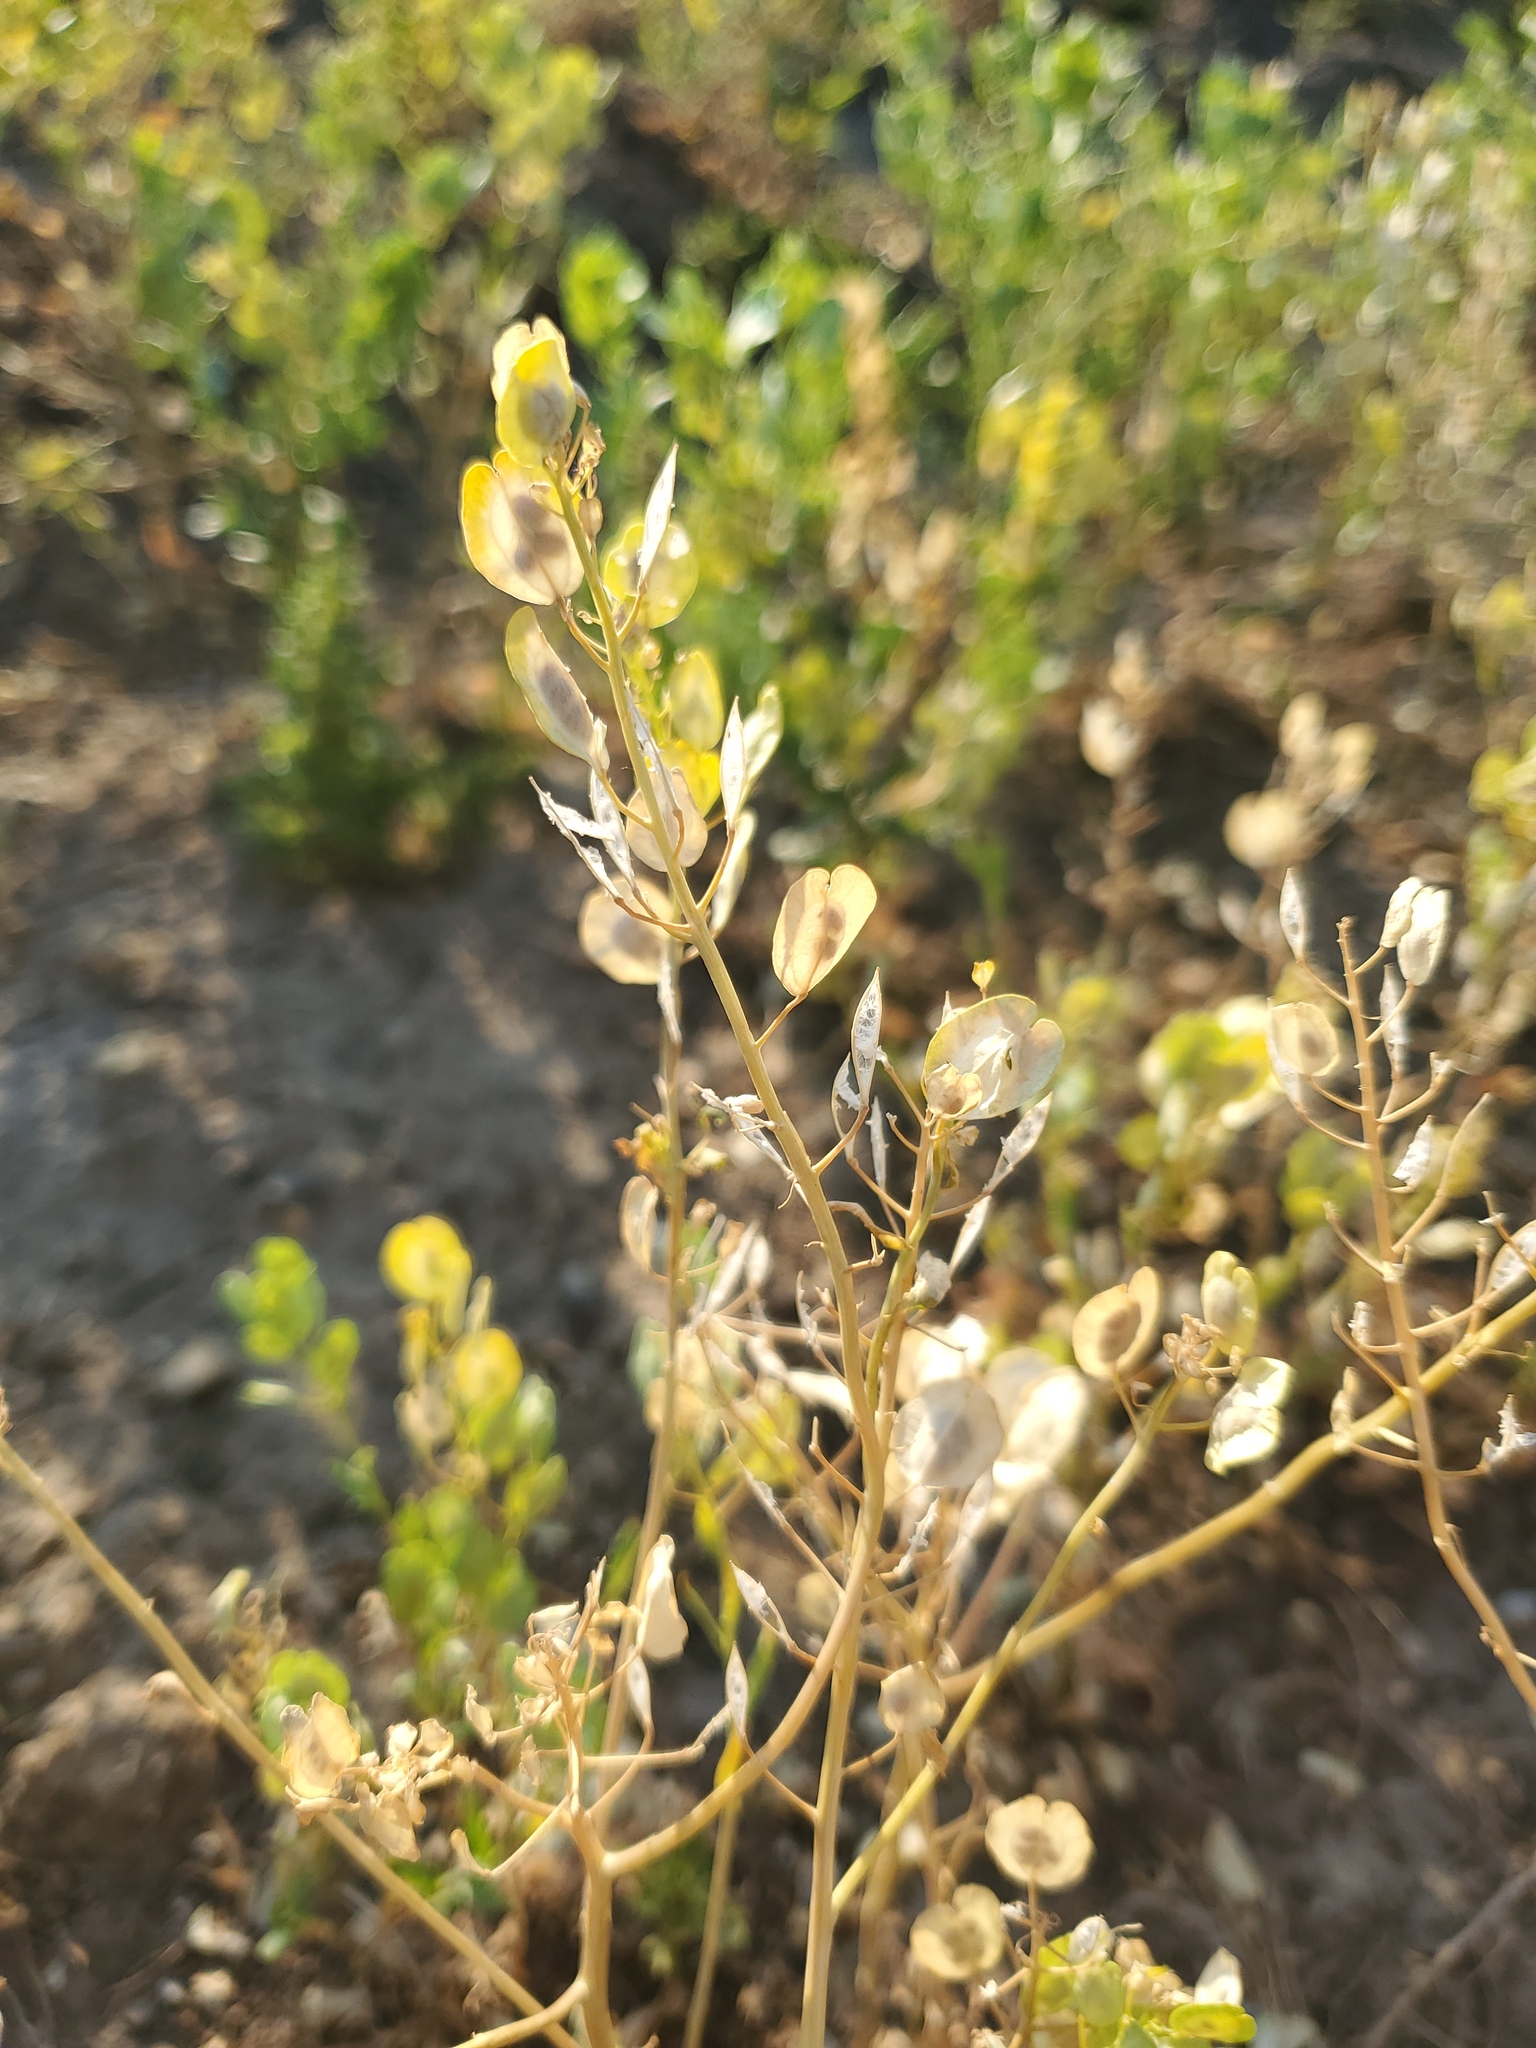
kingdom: Plantae
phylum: Tracheophyta
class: Magnoliopsida
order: Brassicales
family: Brassicaceae
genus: Thlaspi
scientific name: Thlaspi arvense
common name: Field pennycress
